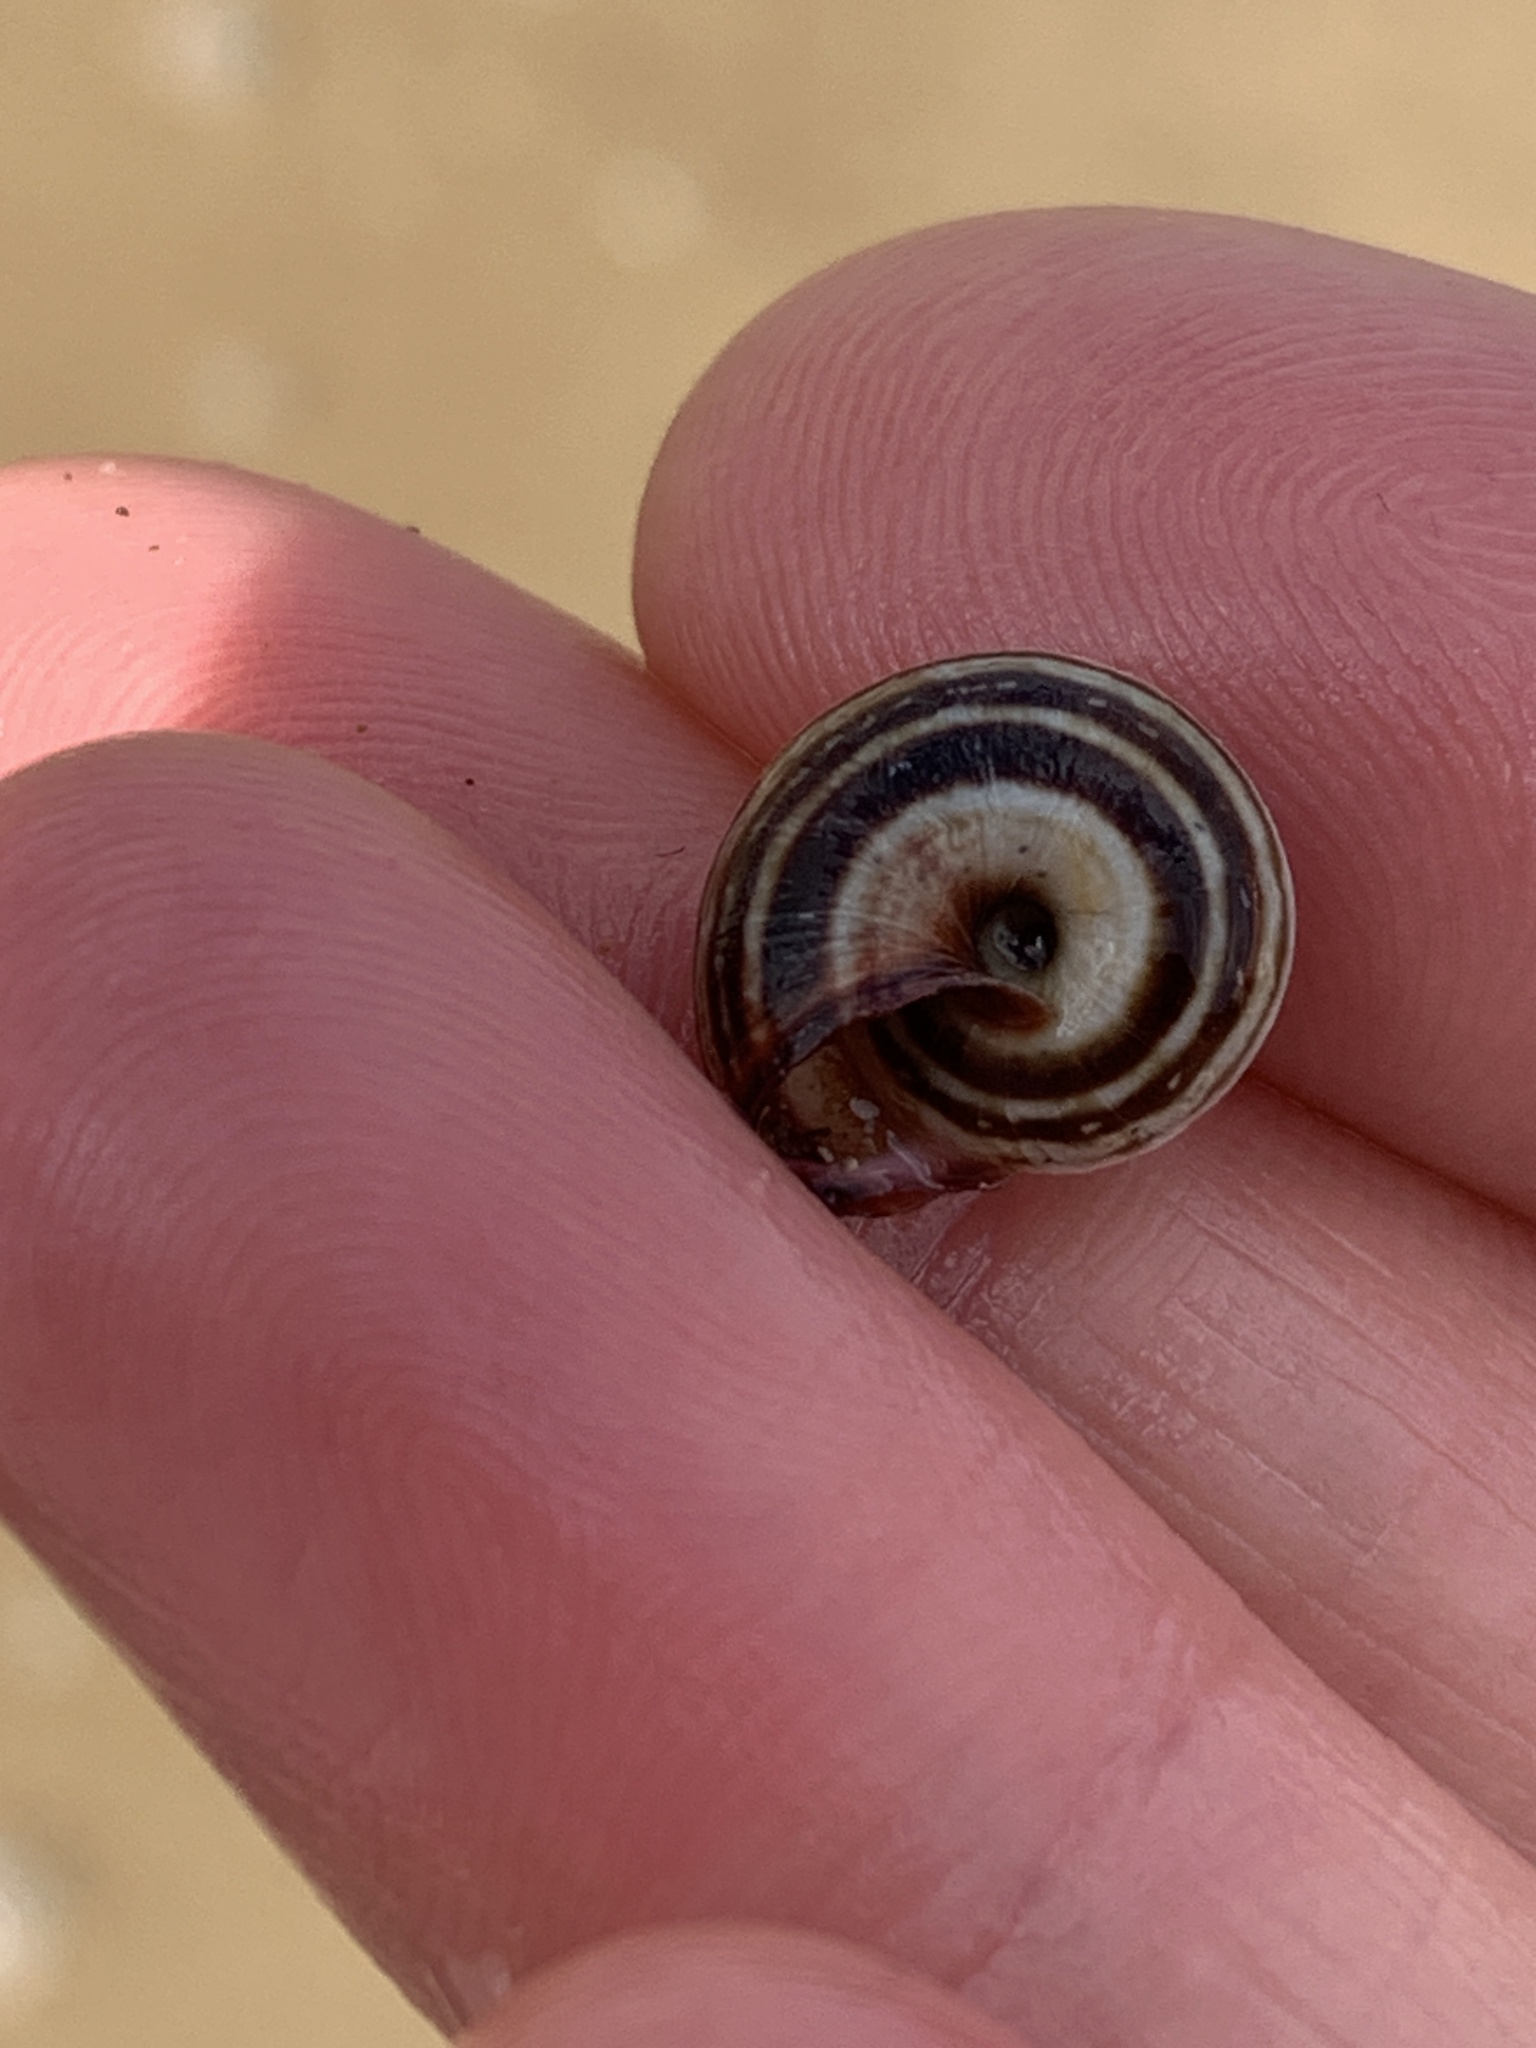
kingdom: Animalia
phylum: Mollusca
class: Gastropoda
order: Stylommatophora
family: Geomitridae
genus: Cernuella
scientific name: Cernuella virgata
